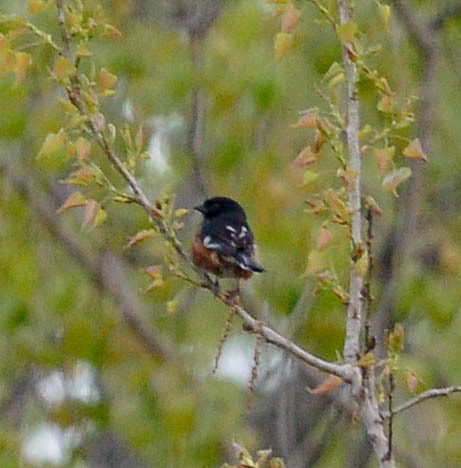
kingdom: Animalia
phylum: Chordata
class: Aves
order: Passeriformes
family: Passerellidae
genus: Pipilo
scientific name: Pipilo erythrophthalmus
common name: Eastern towhee
